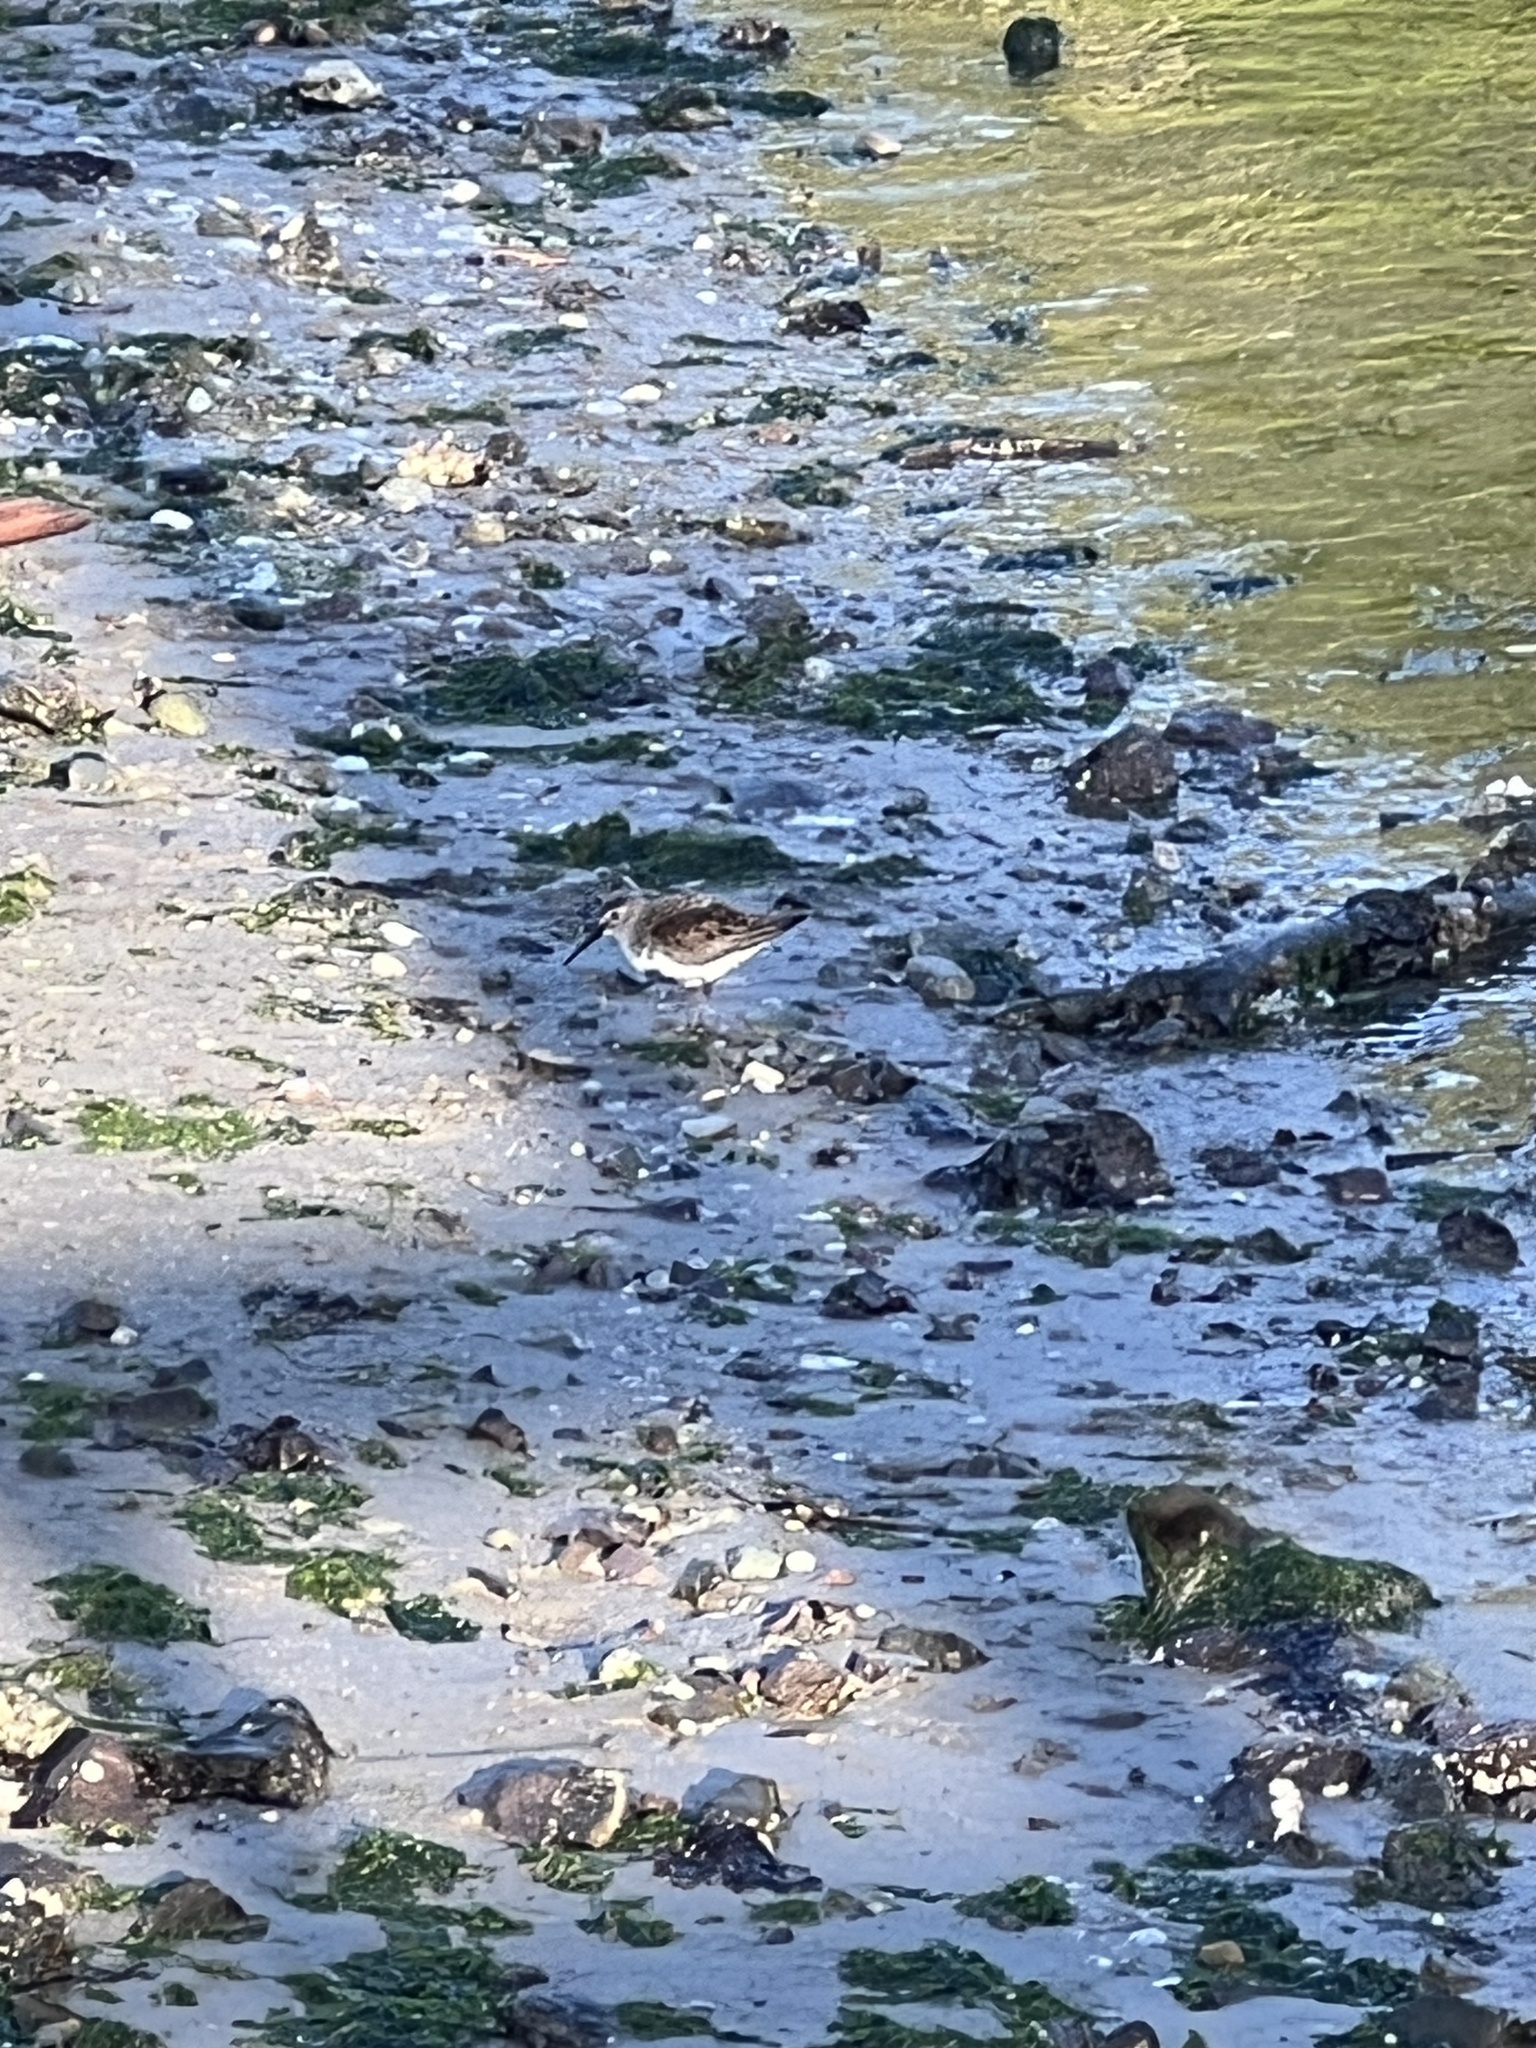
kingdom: Animalia
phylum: Chordata
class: Aves
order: Charadriiformes
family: Scolopacidae
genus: Calidris
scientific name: Calidris alpina
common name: Dunlin
